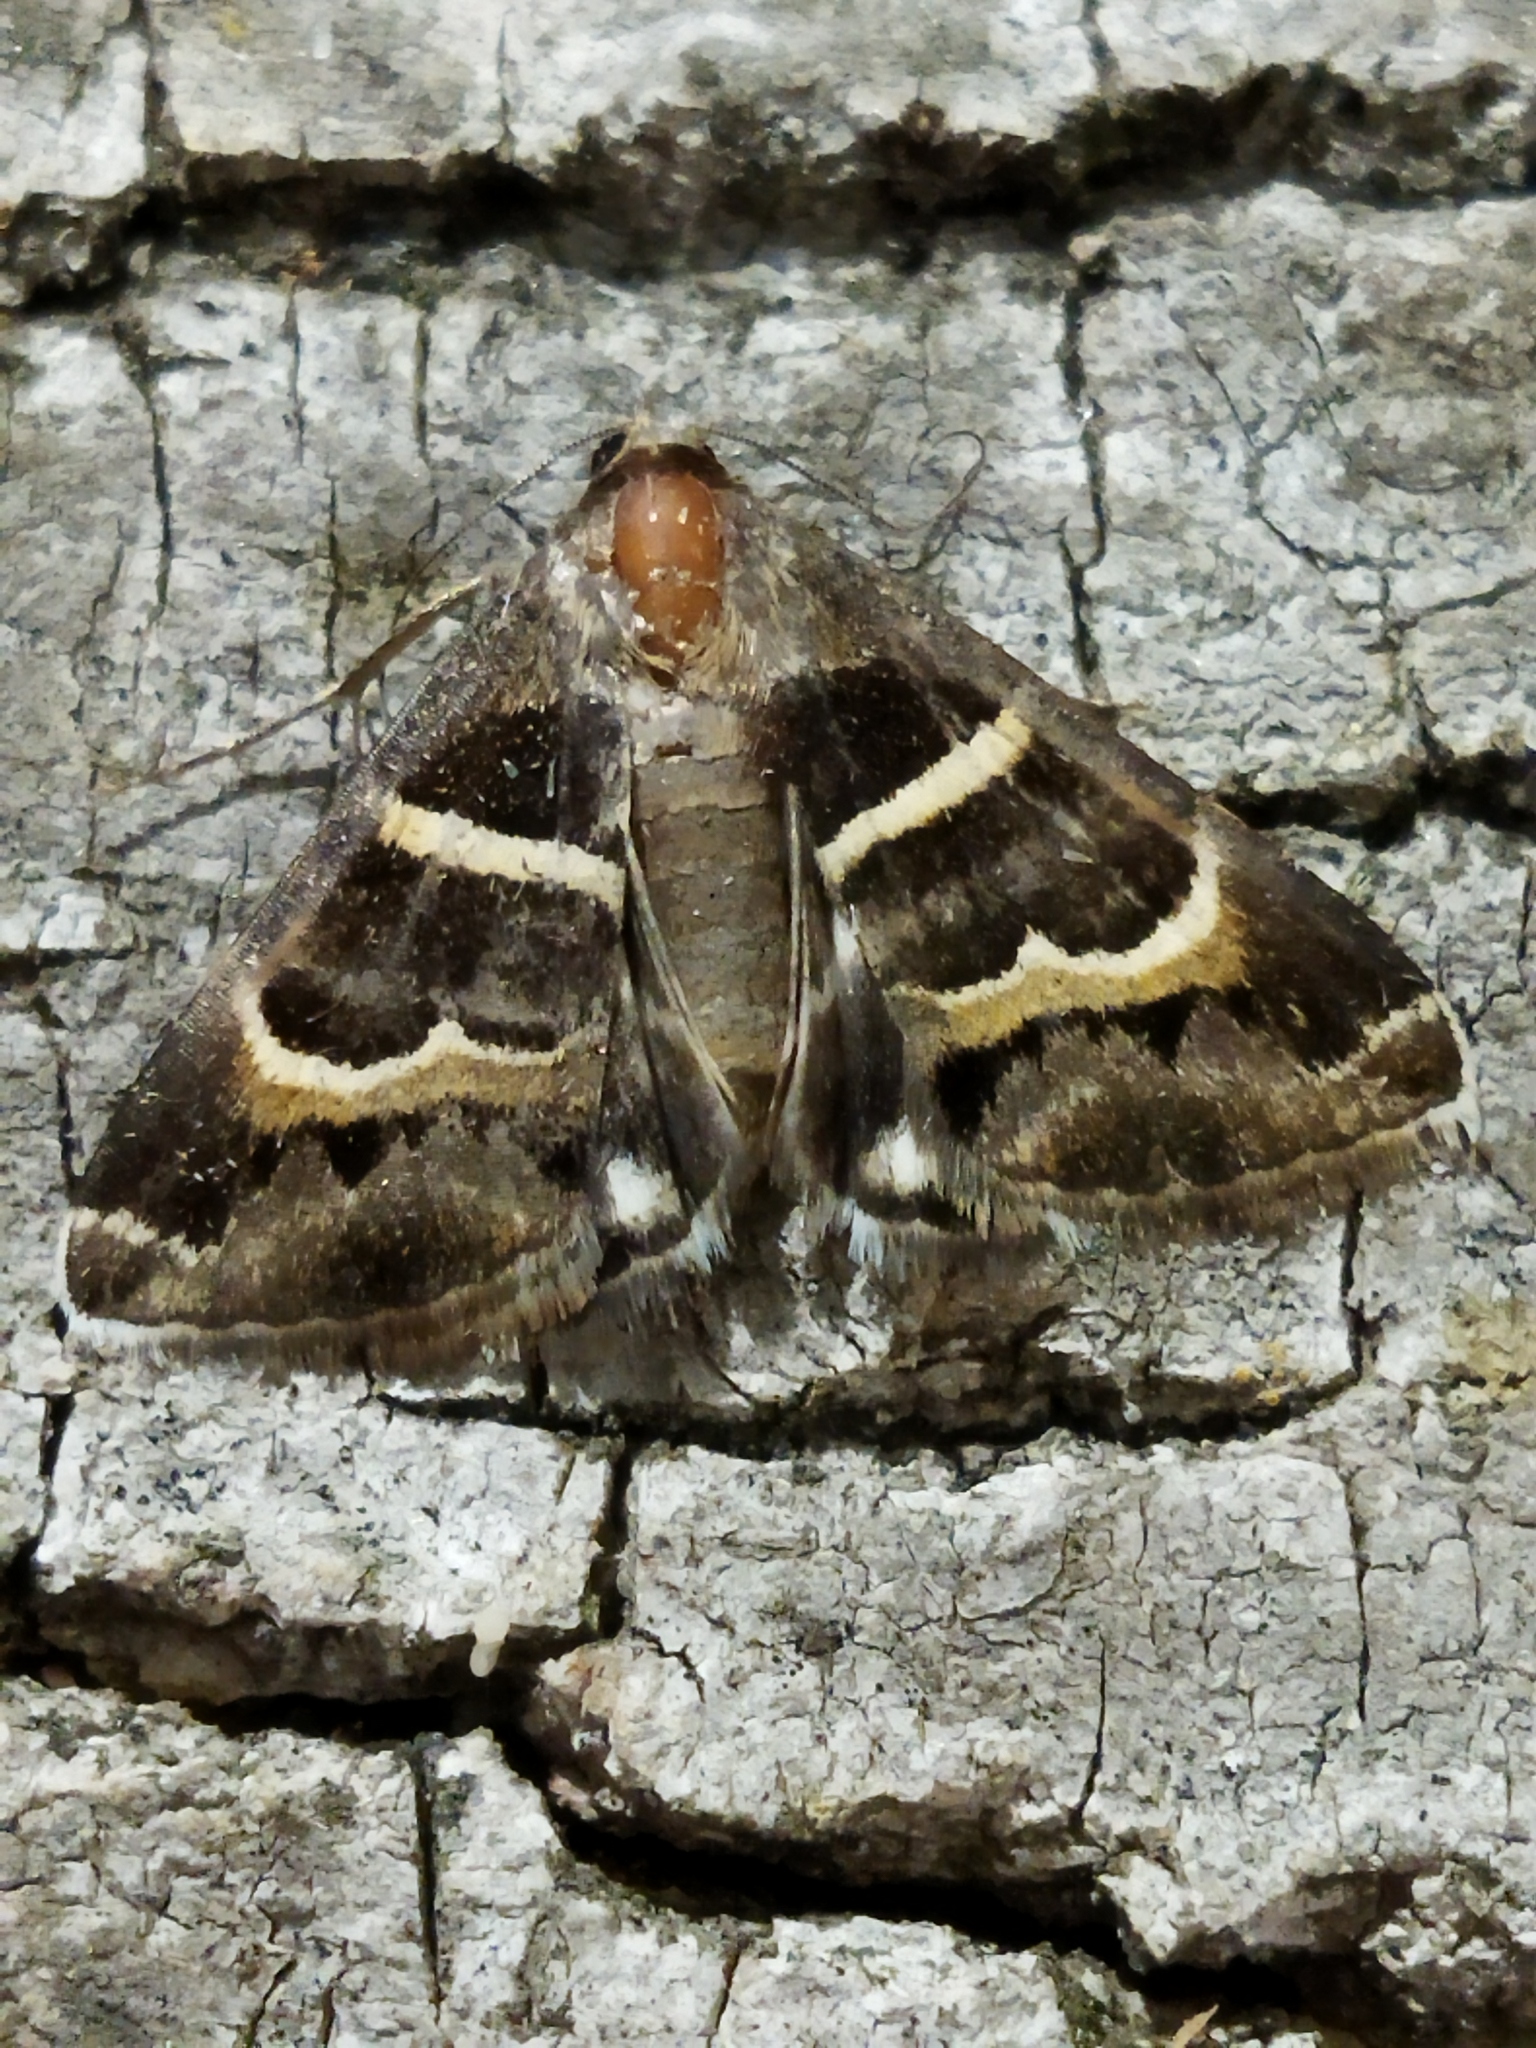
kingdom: Animalia
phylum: Arthropoda
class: Insecta
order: Lepidoptera
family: Erebidae
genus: Grammodes
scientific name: Grammodes stolida
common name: Geometrician
